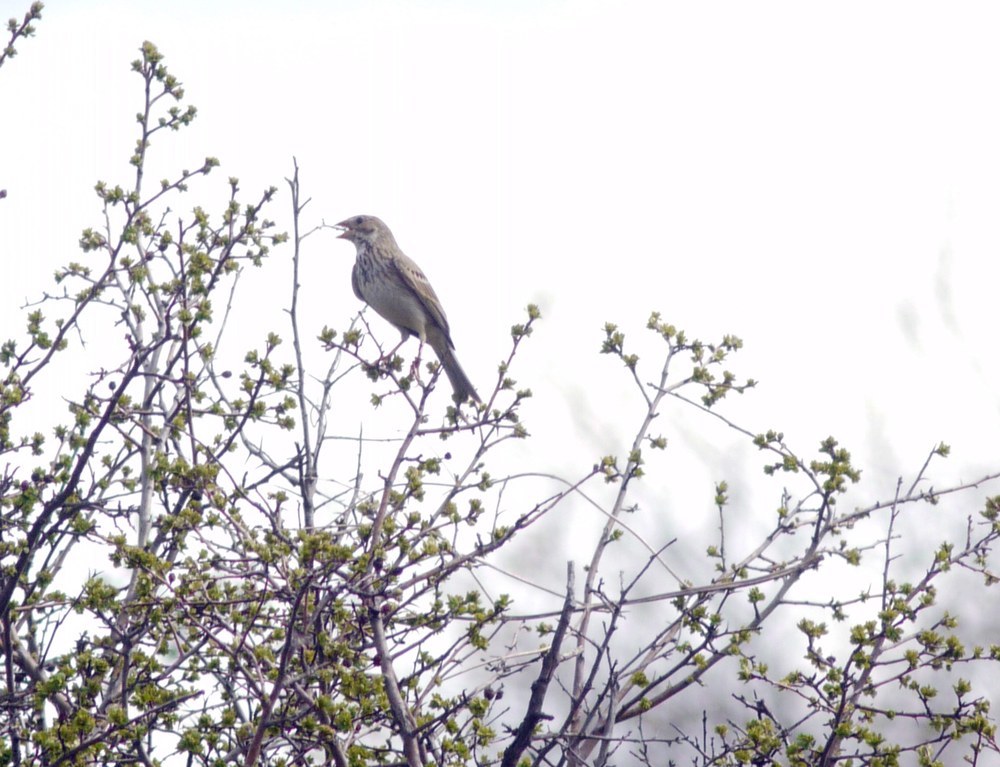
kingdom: Animalia
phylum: Chordata
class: Aves
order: Passeriformes
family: Emberizidae
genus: Emberiza
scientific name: Emberiza calandra
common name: Corn bunting
